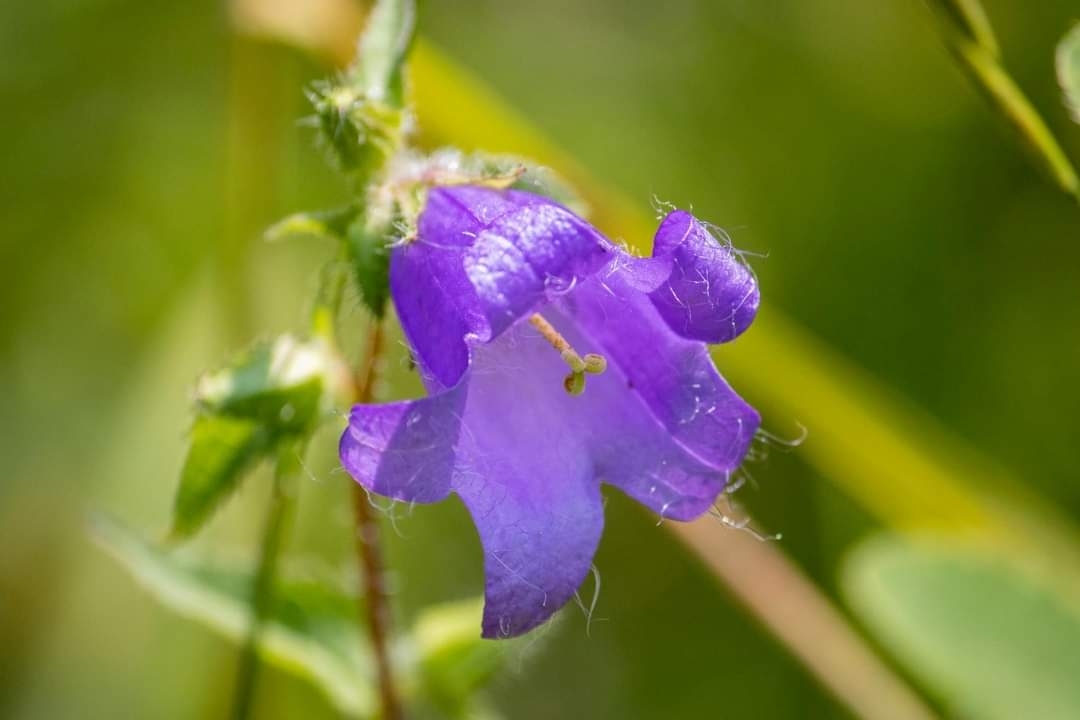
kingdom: Plantae
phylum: Tracheophyta
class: Magnoliopsida
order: Asterales
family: Campanulaceae
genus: Campanula
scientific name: Campanula trachelium
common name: Nettle-leaved bellflower
